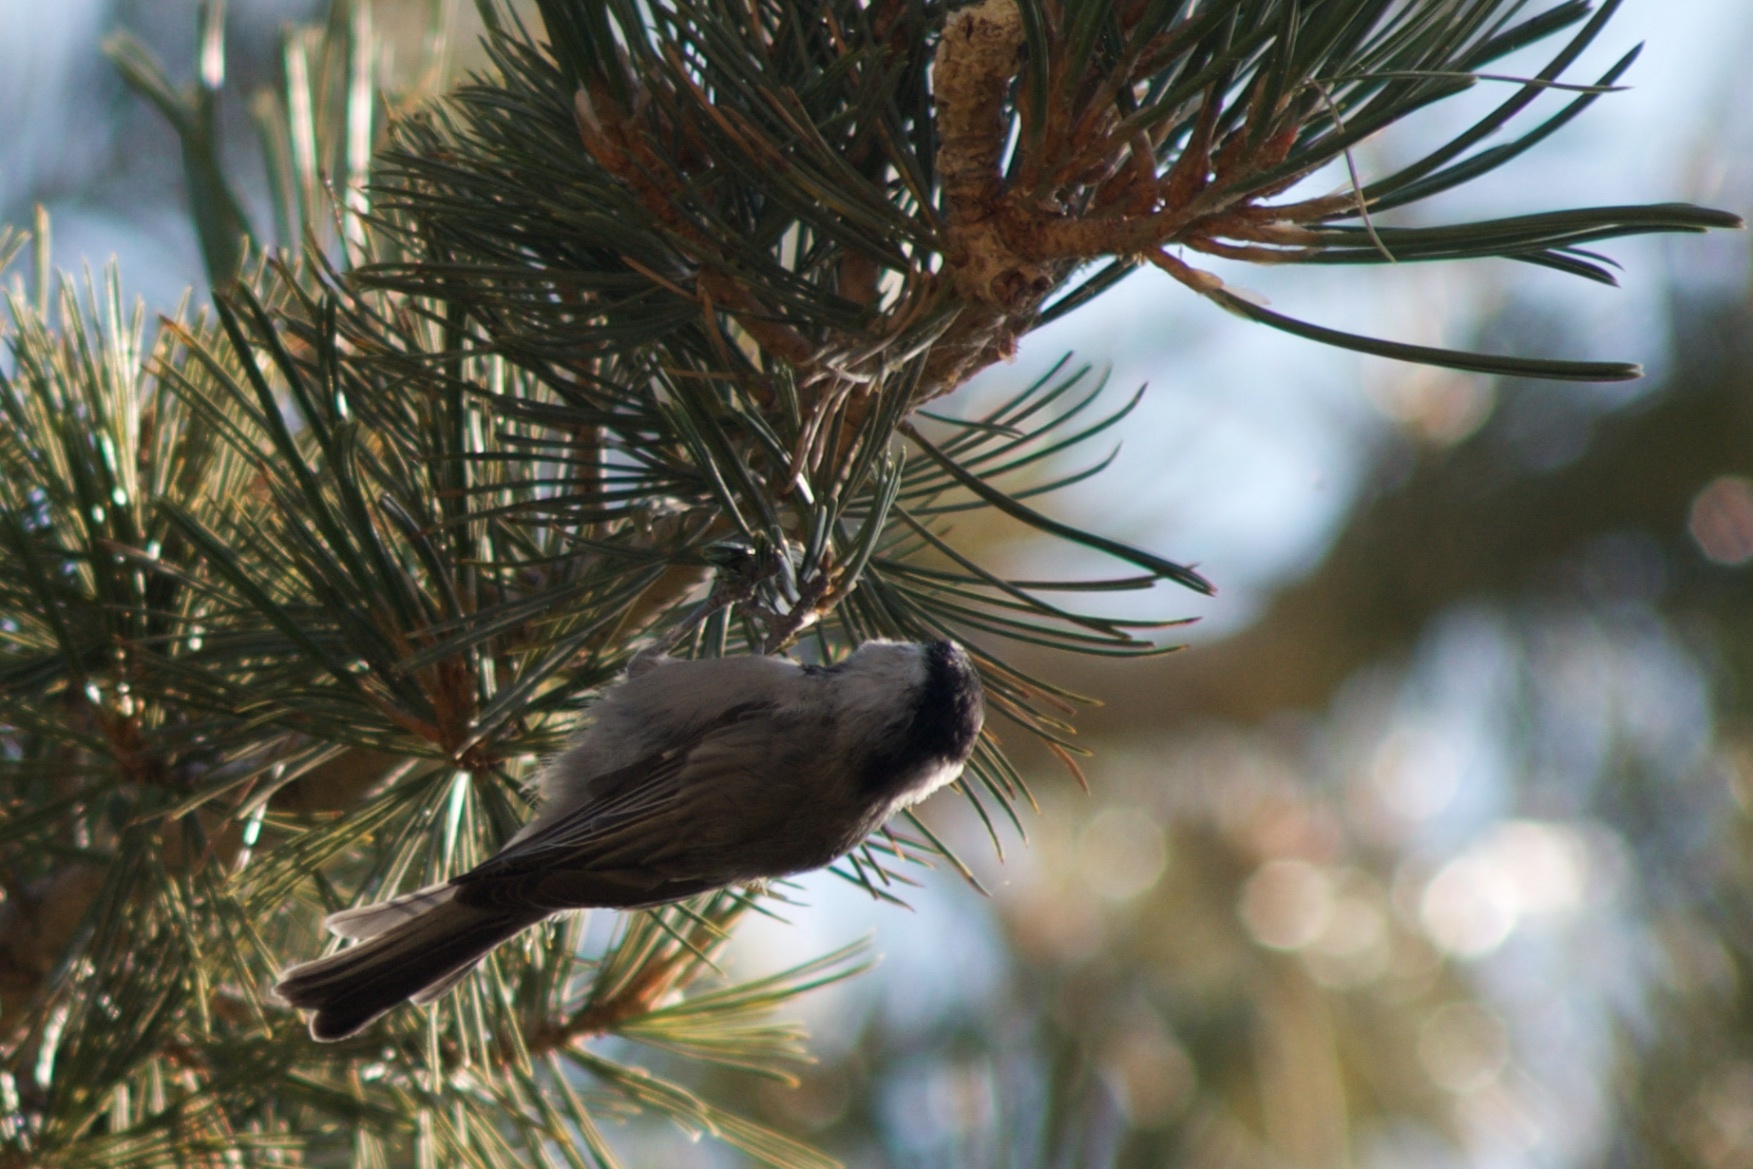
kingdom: Animalia
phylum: Chordata
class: Aves
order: Passeriformes
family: Paridae
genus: Poecile
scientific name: Poecile gambeli
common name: Mountain chickadee
